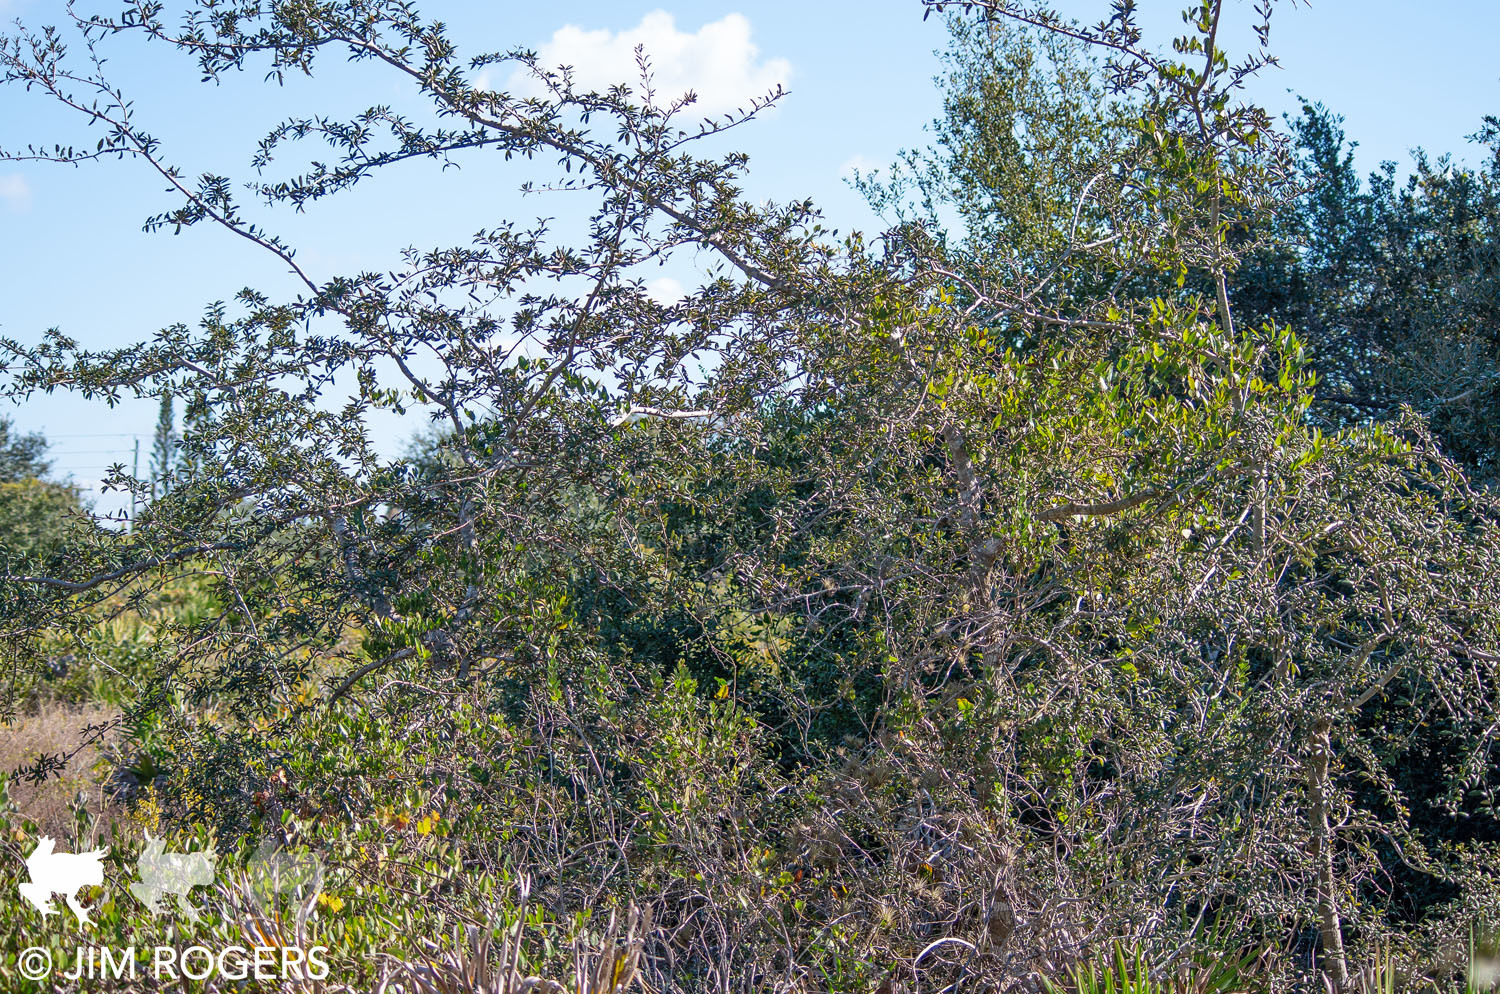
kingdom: Plantae
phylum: Tracheophyta
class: Magnoliopsida
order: Fagales
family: Fagaceae
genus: Quercus
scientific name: Quercus geminata
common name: Sand live oak
